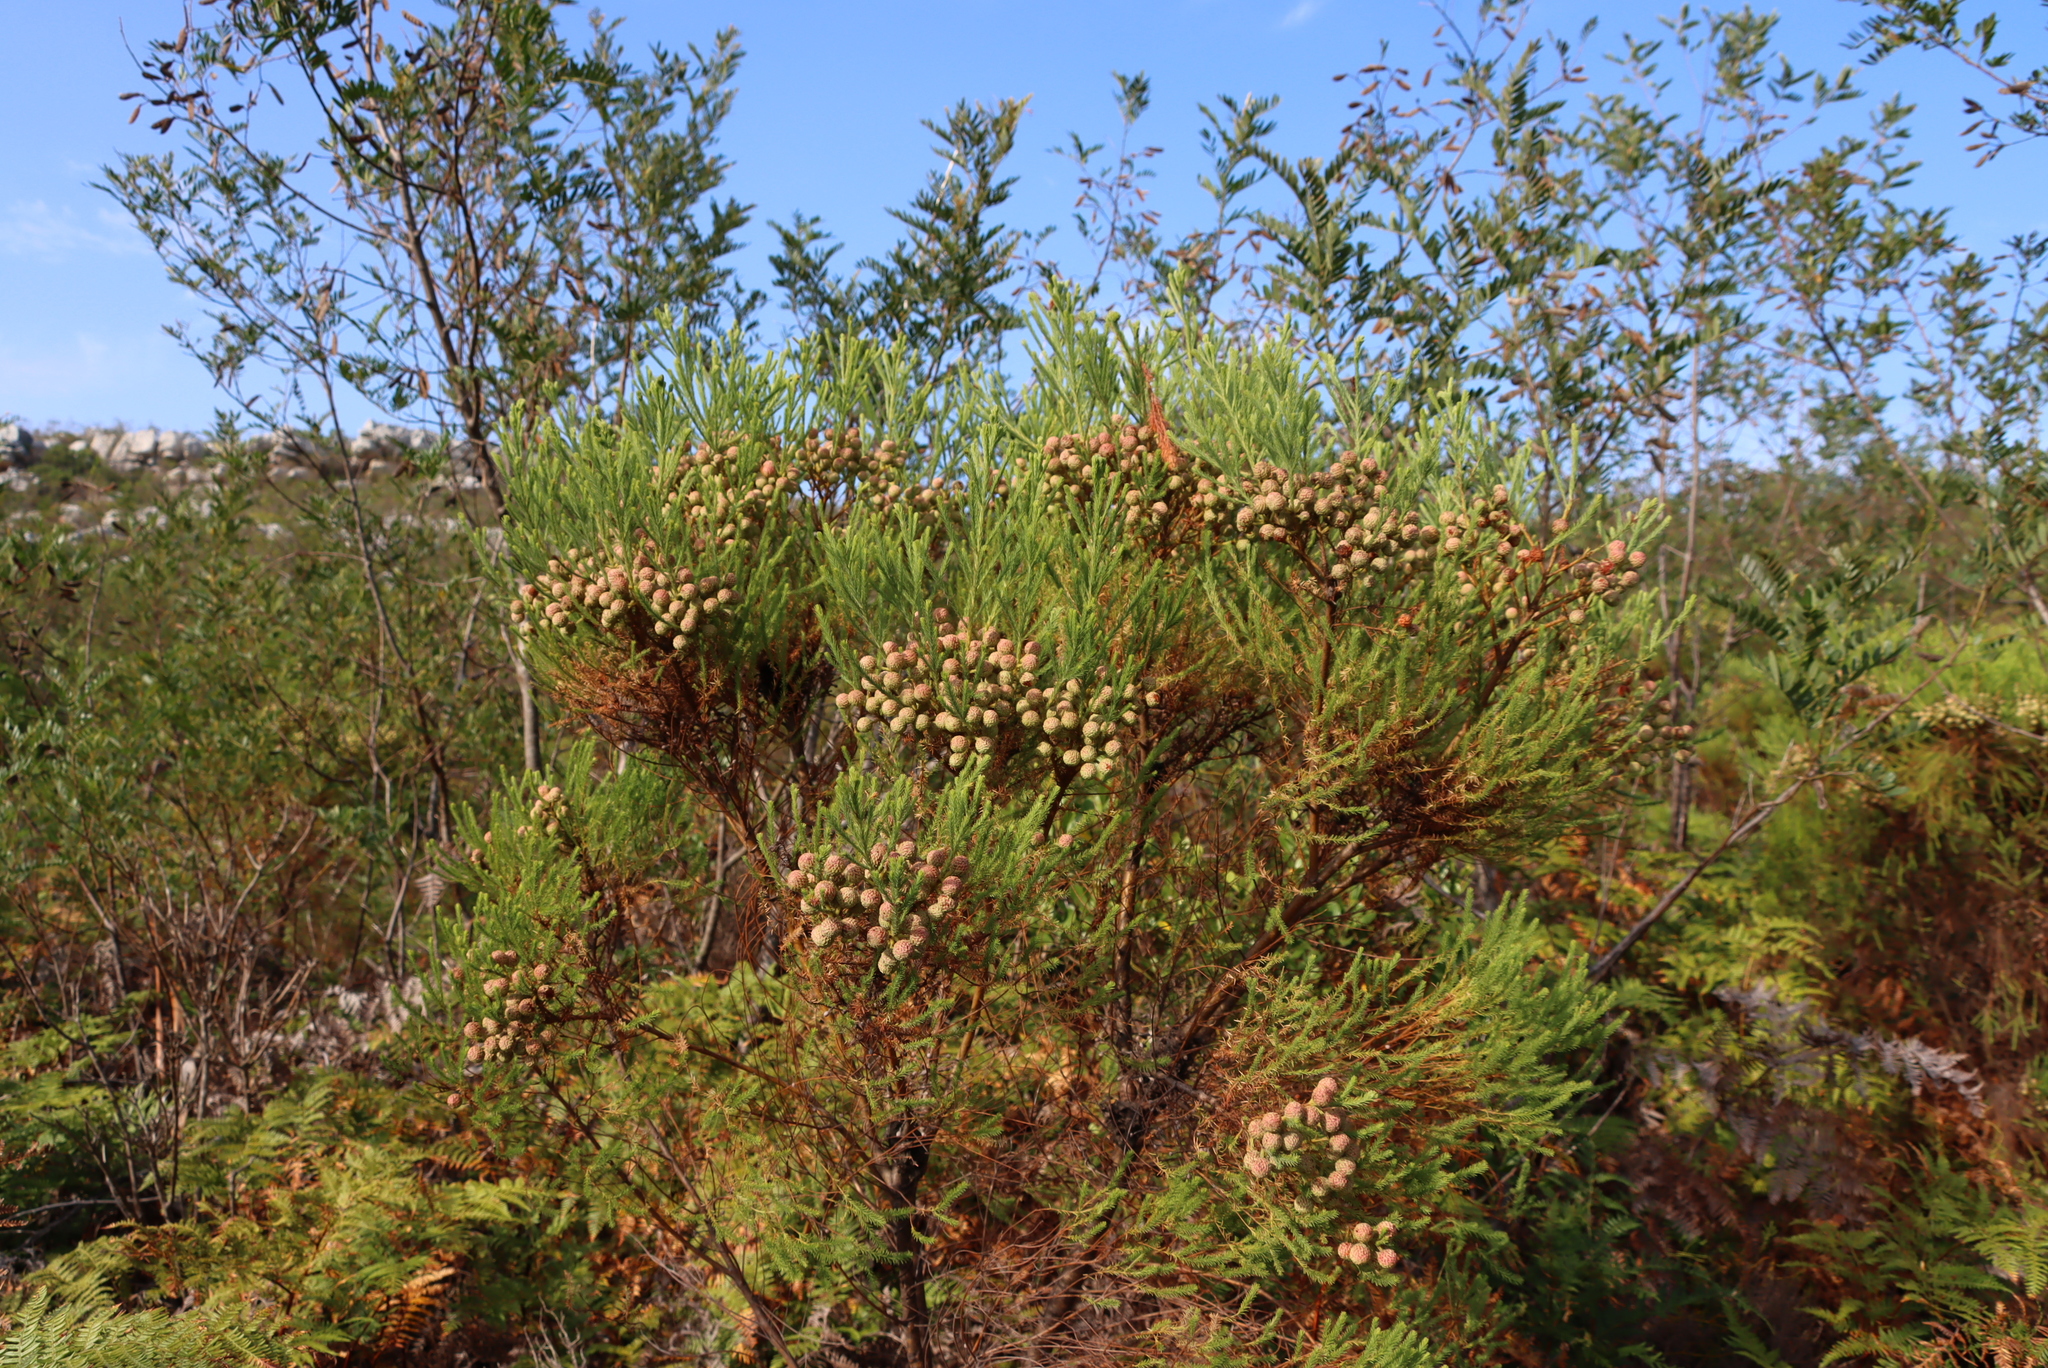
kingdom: Plantae
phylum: Tracheophyta
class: Magnoliopsida
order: Bruniales
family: Bruniaceae
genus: Berzelia
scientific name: Berzelia lanuginosa
